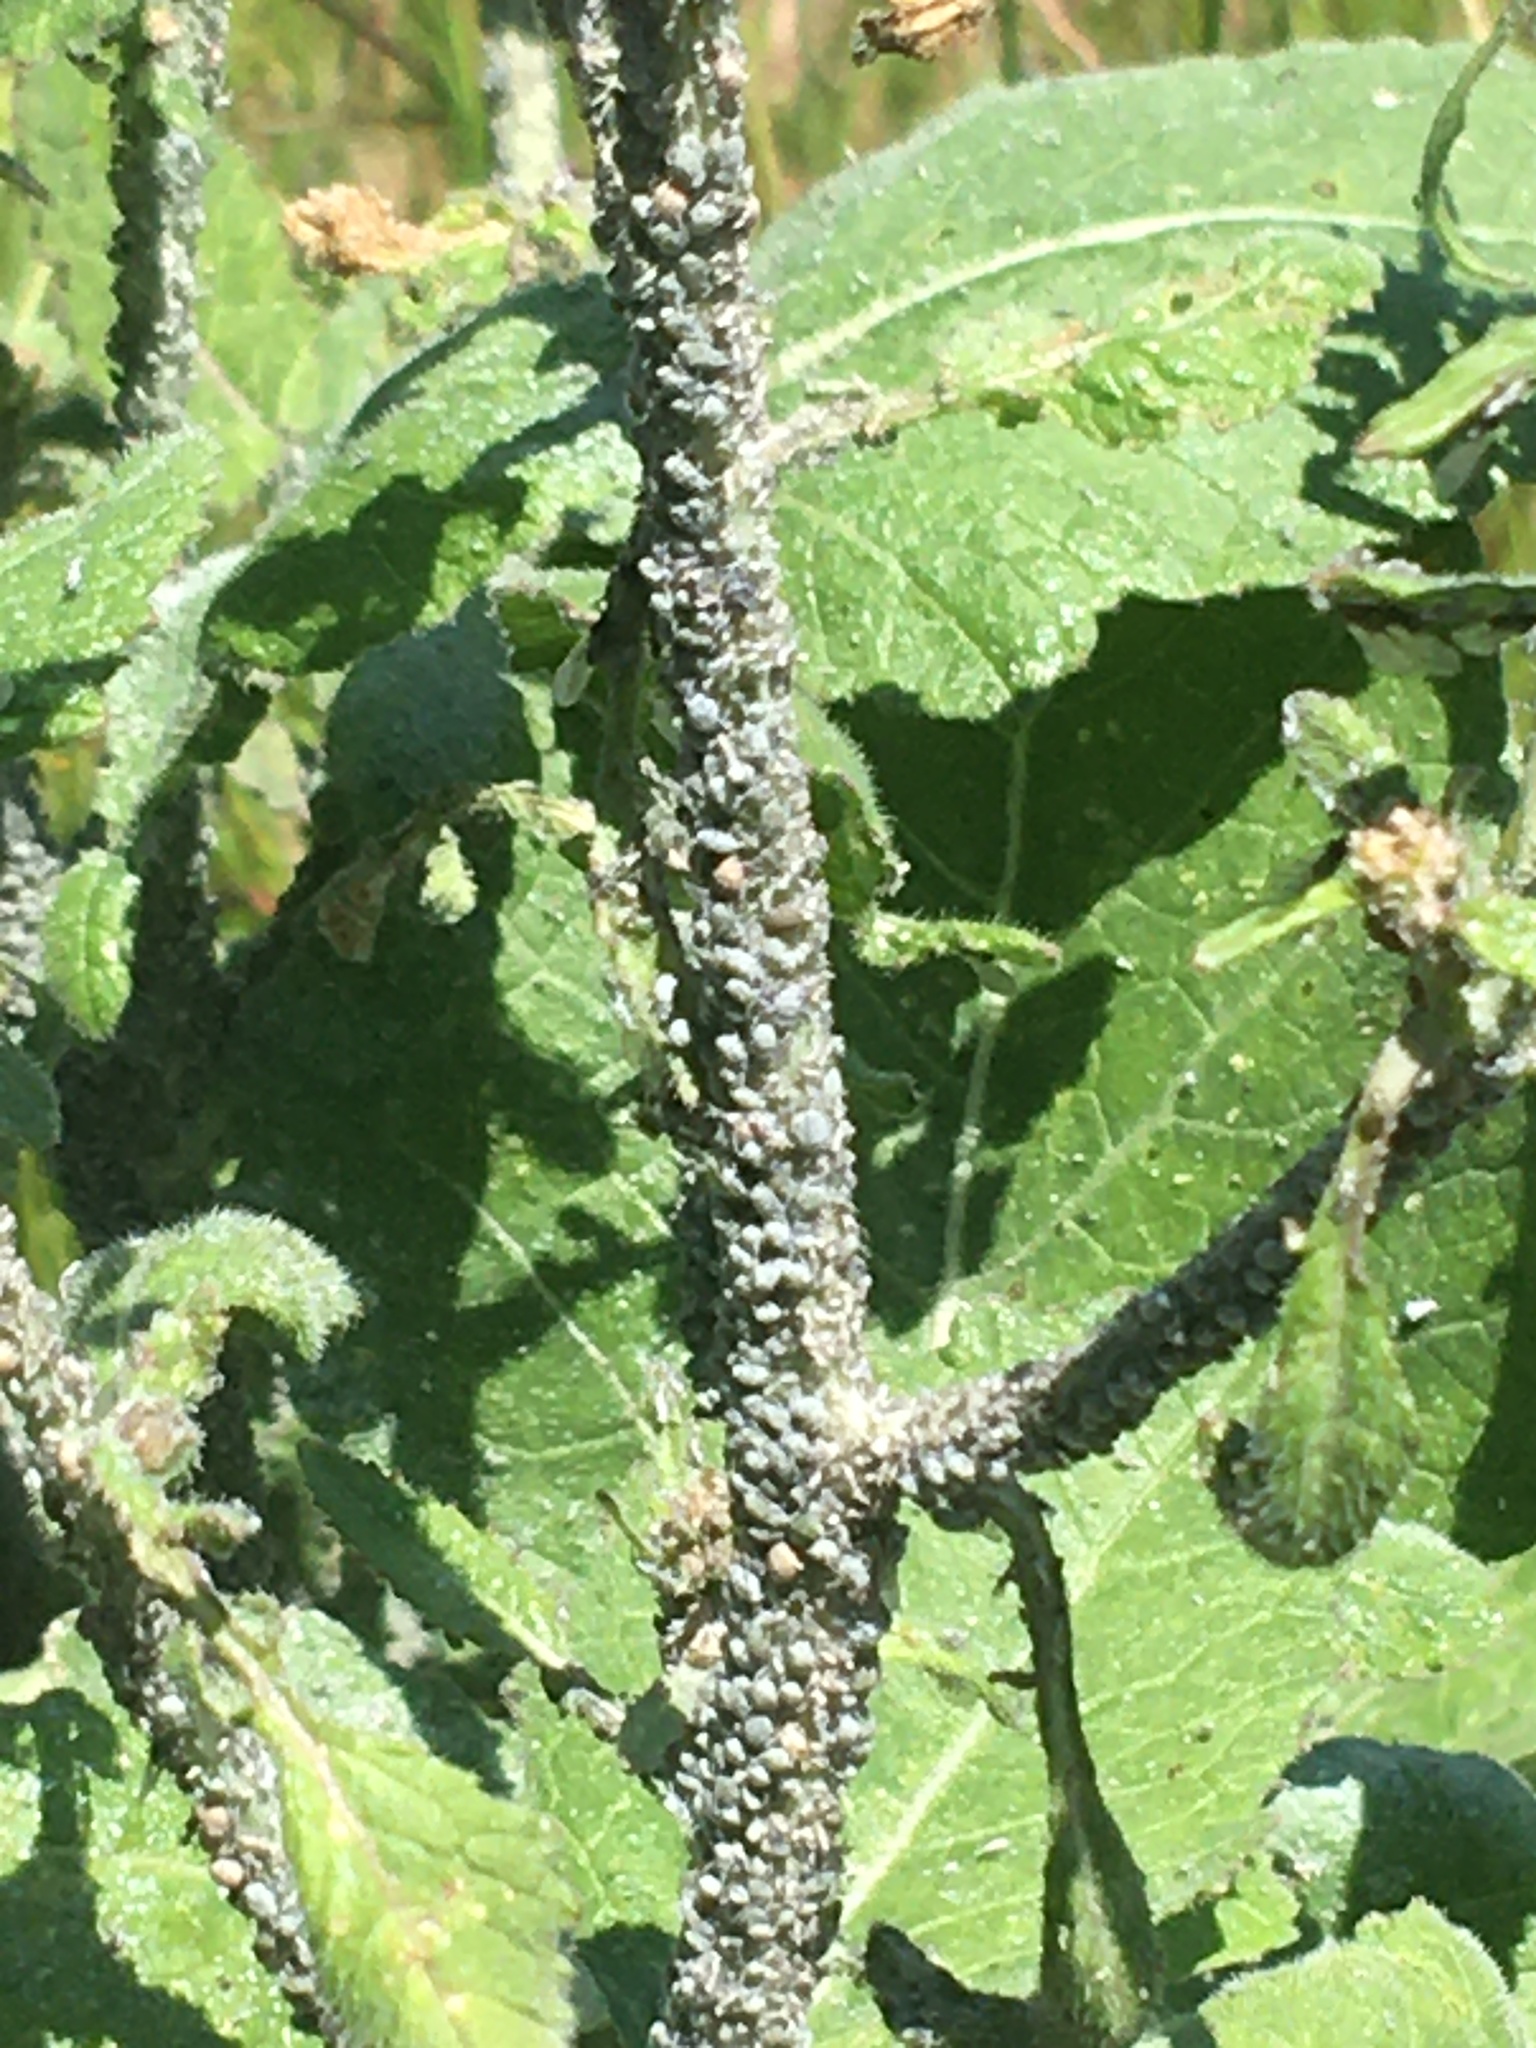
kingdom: Animalia
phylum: Arthropoda
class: Insecta
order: Hemiptera
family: Aphididae
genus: Brevicoryne
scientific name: Brevicoryne brassicae
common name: Cabbage aphid
